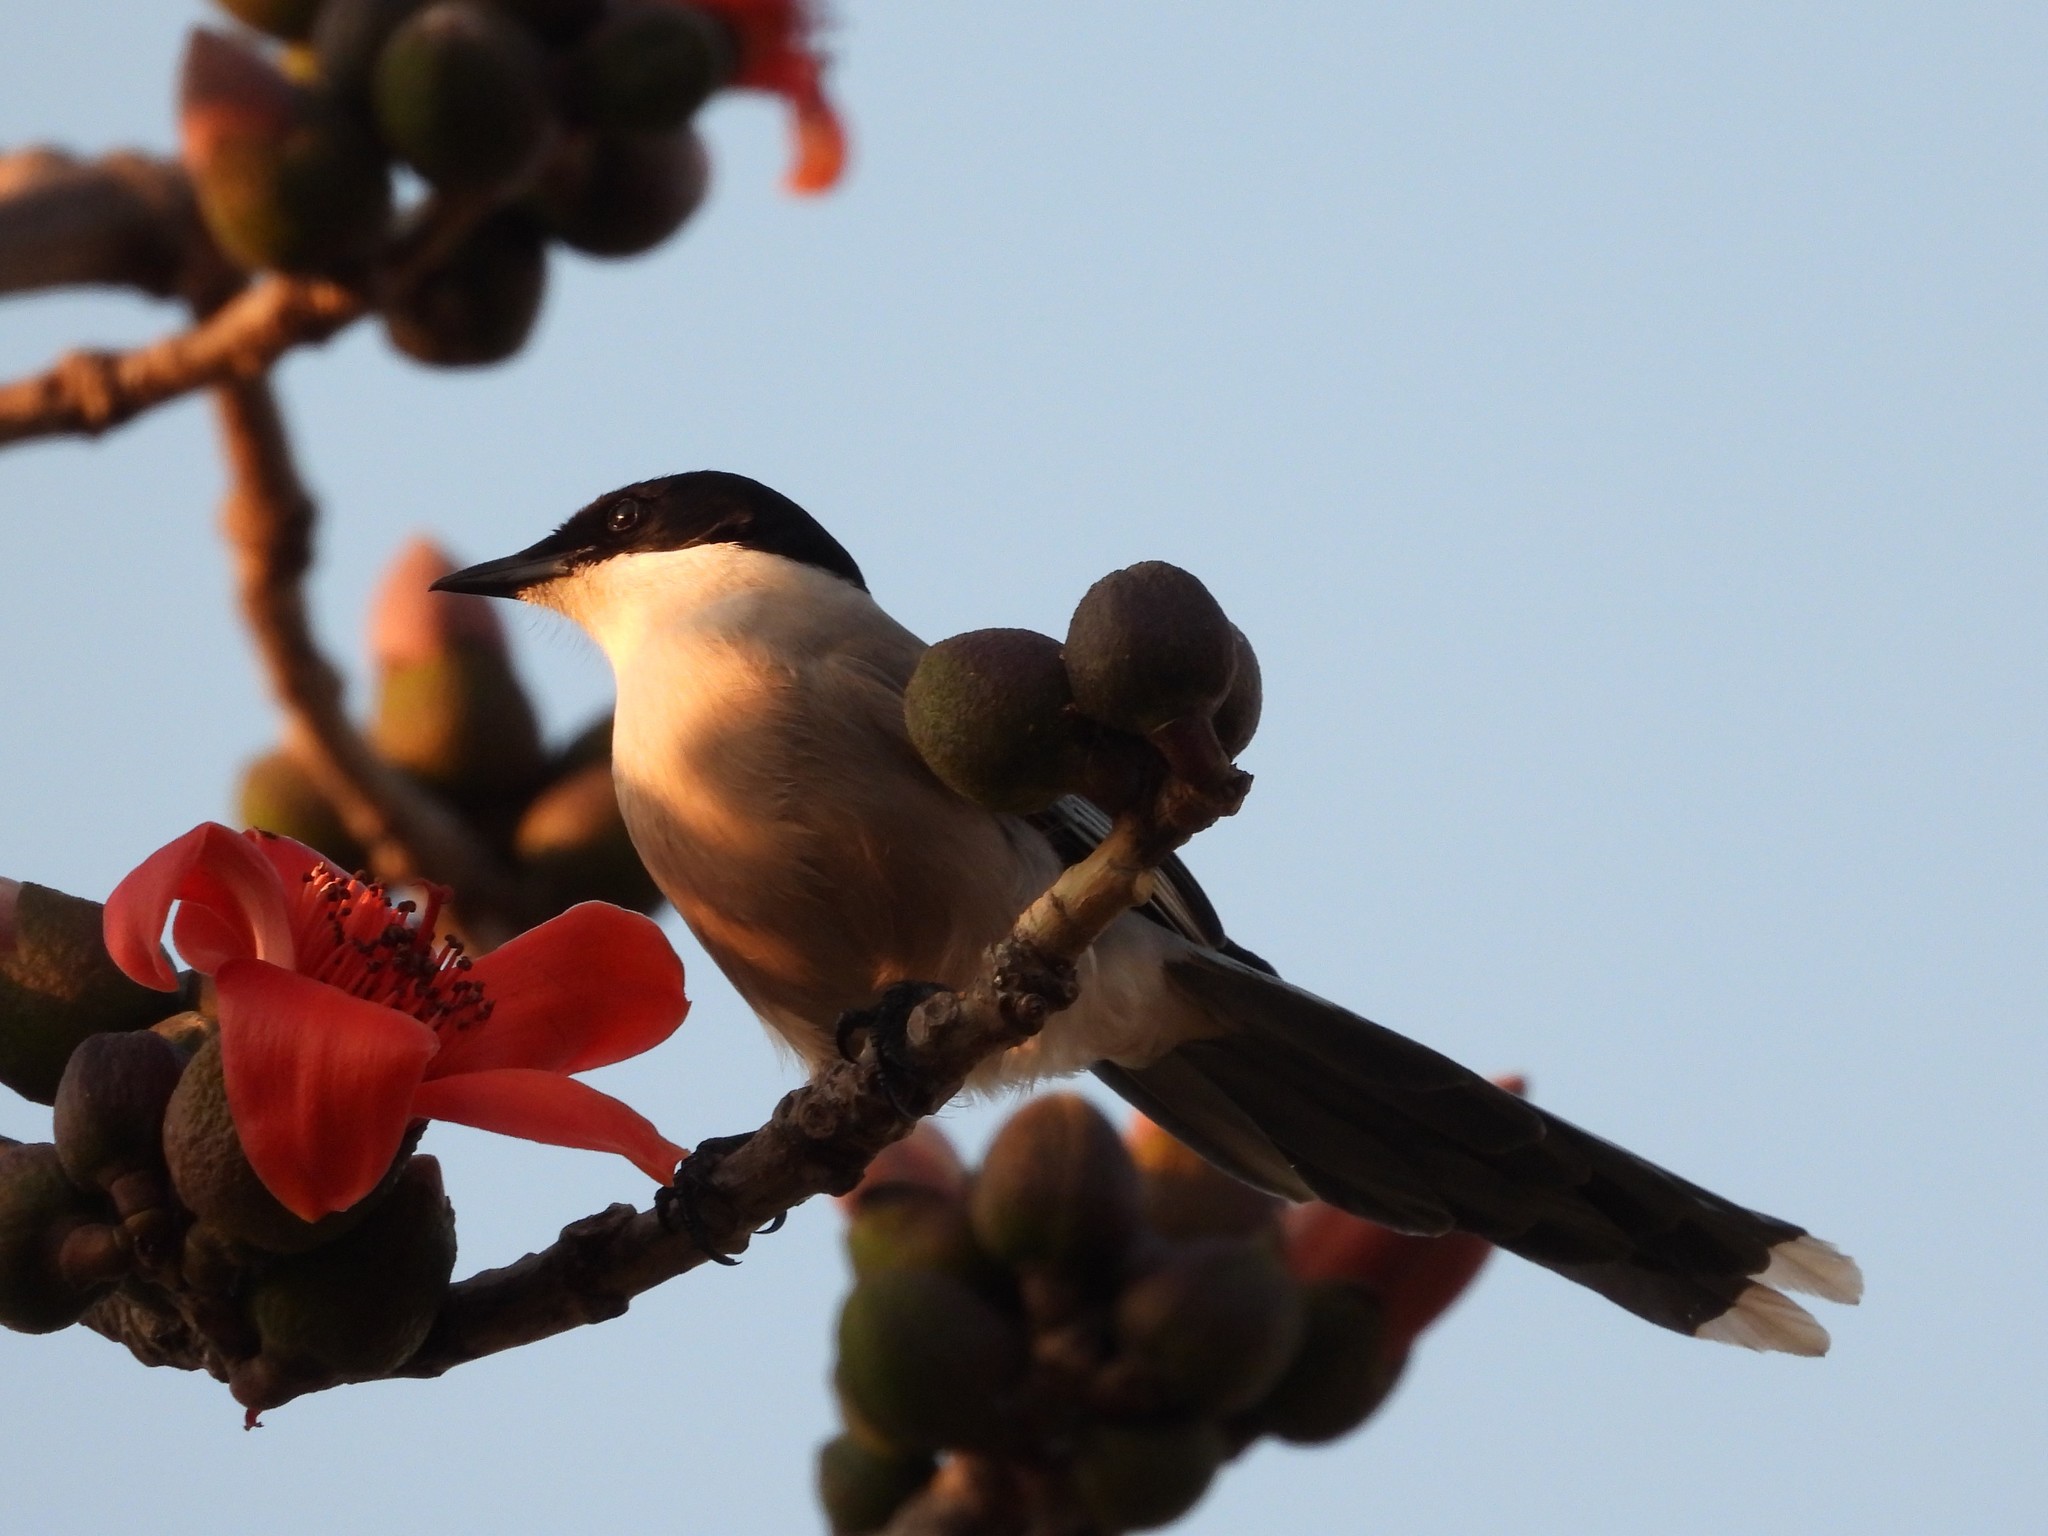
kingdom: Animalia
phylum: Chordata
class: Aves
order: Passeriformes
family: Corvidae
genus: Cyanopica
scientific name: Cyanopica cyanus
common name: Azure-winged magpie
